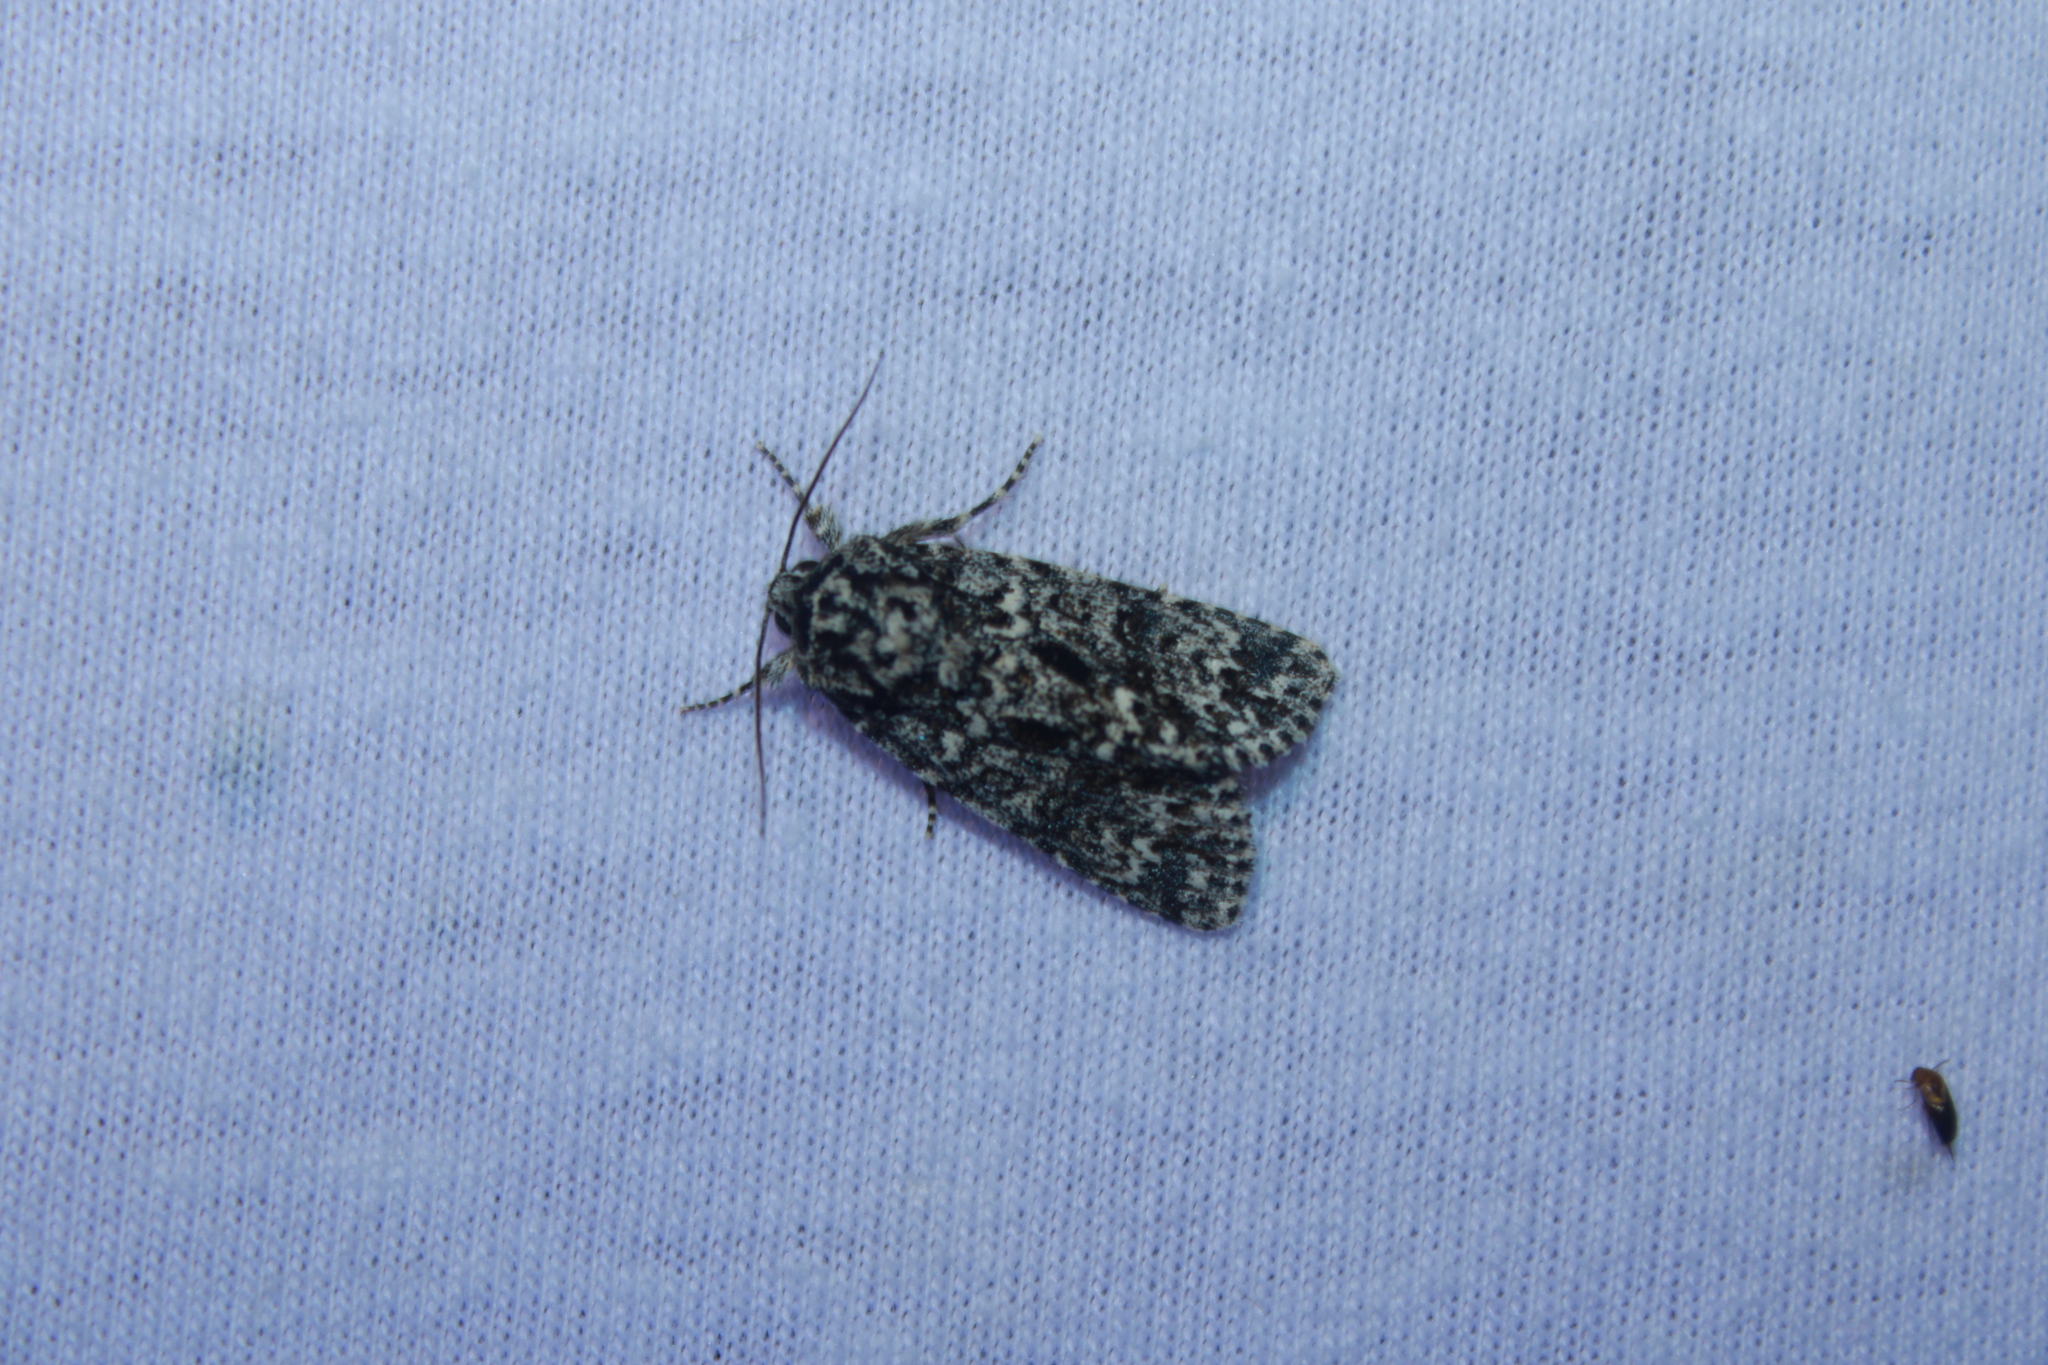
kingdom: Animalia
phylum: Arthropoda
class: Insecta
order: Lepidoptera
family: Noctuidae
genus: Acronicta
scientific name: Acronicta noctivaga
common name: Night-wandering dagger
